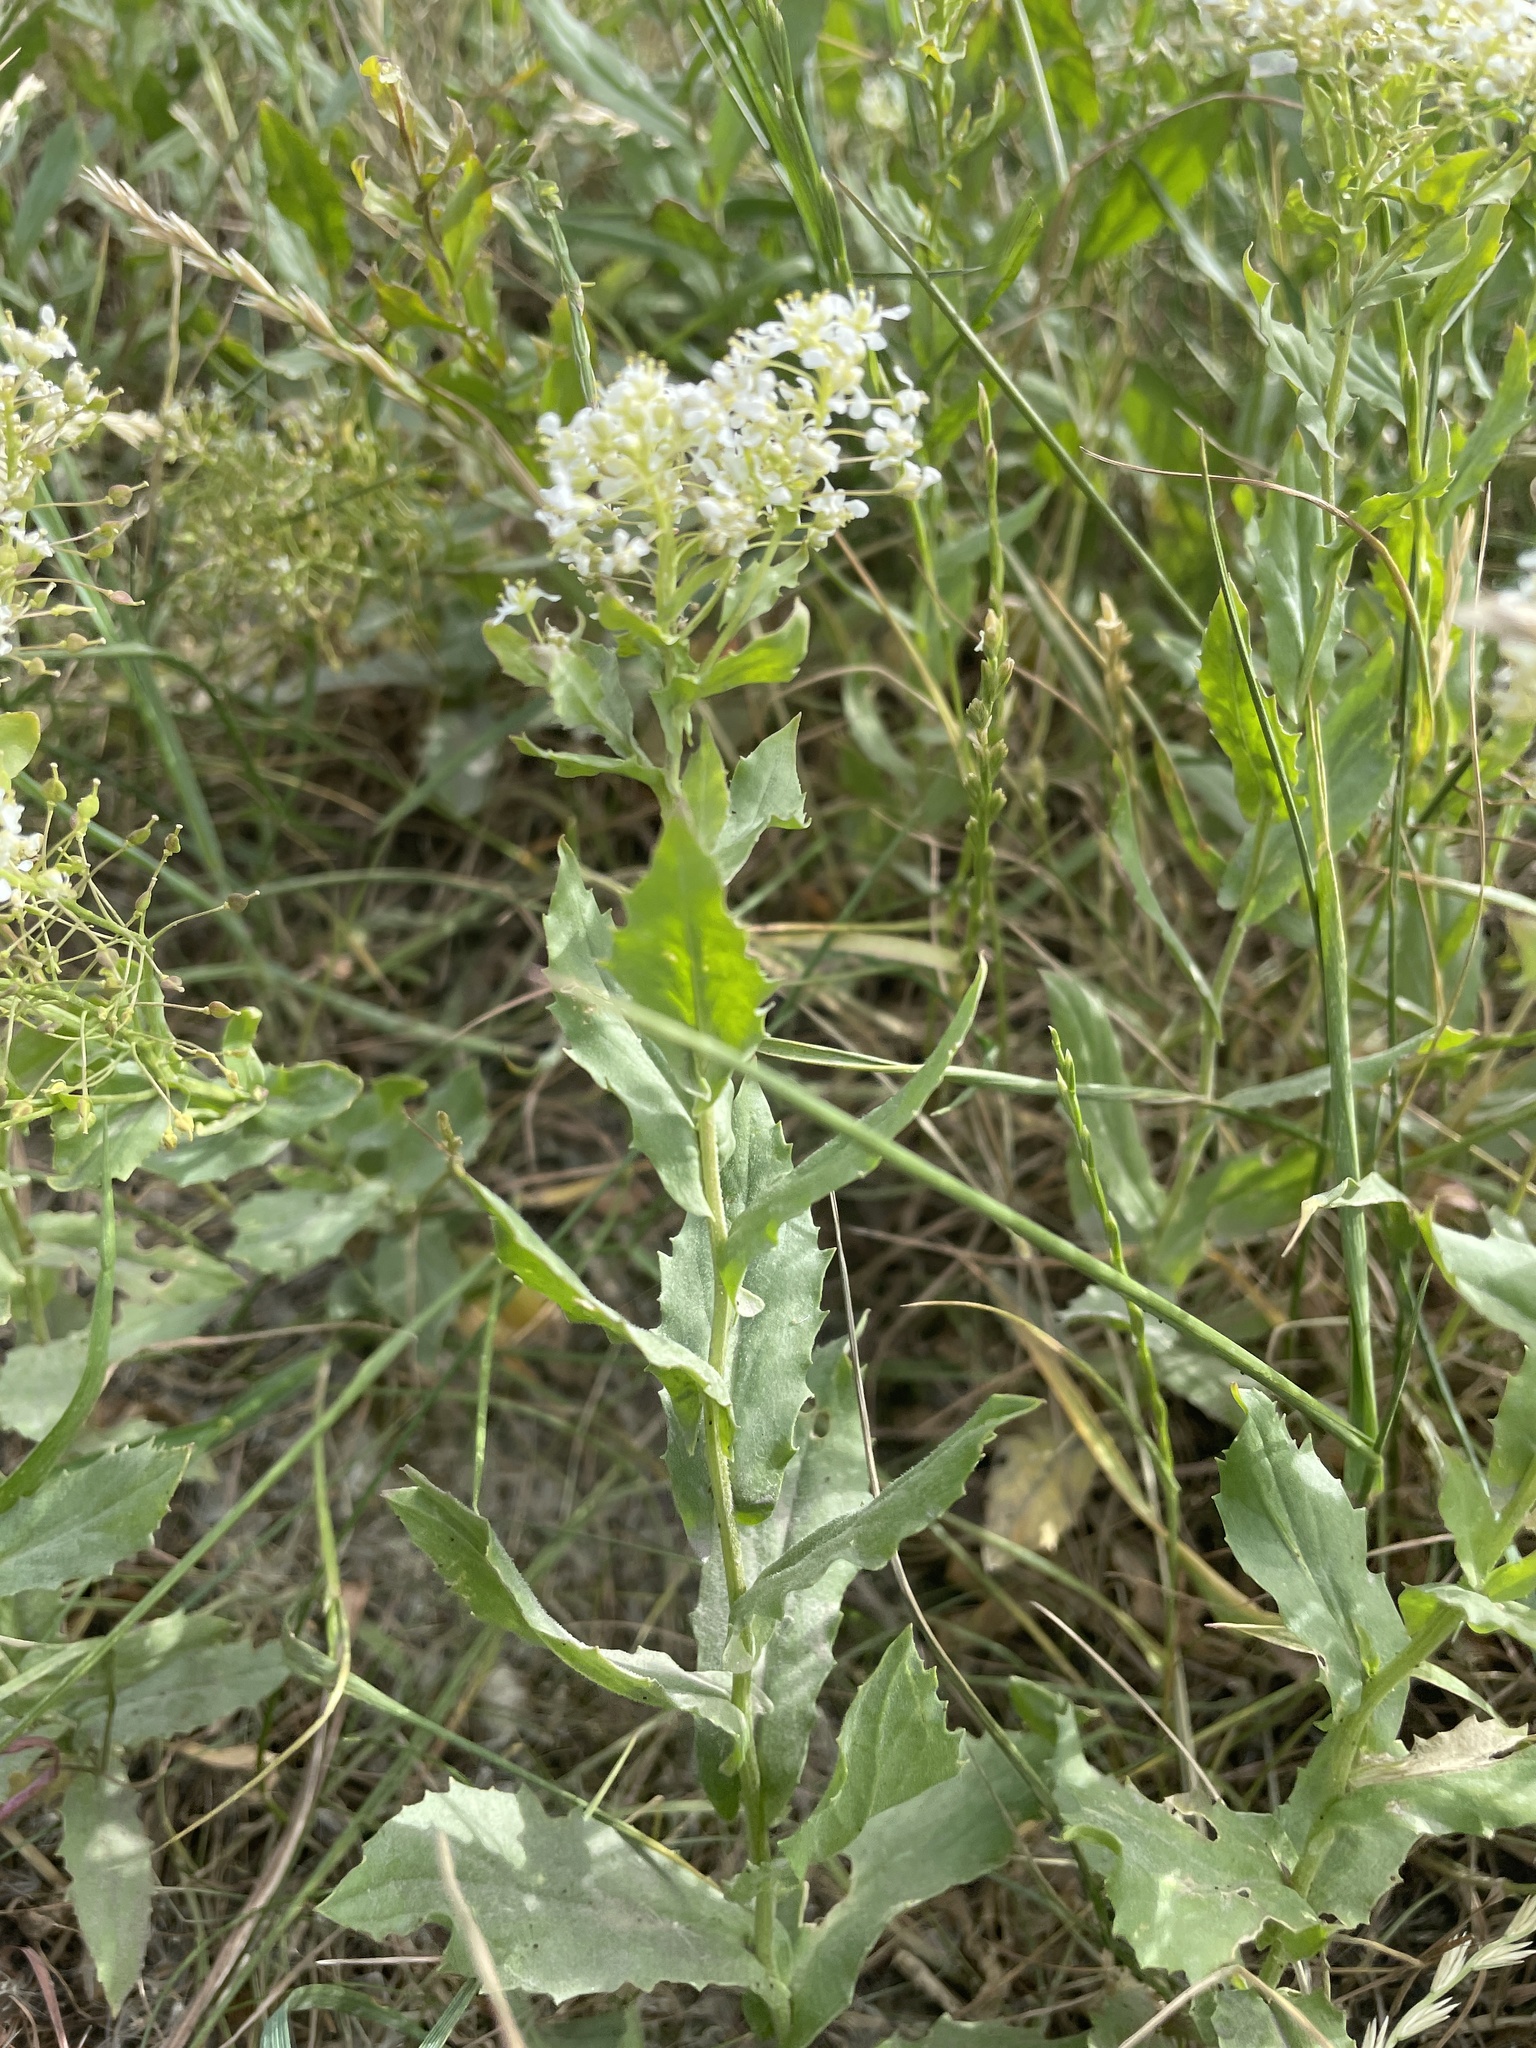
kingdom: Plantae
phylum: Tracheophyta
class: Magnoliopsida
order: Brassicales
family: Brassicaceae
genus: Lepidium
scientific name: Lepidium draba
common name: Hoary cress
